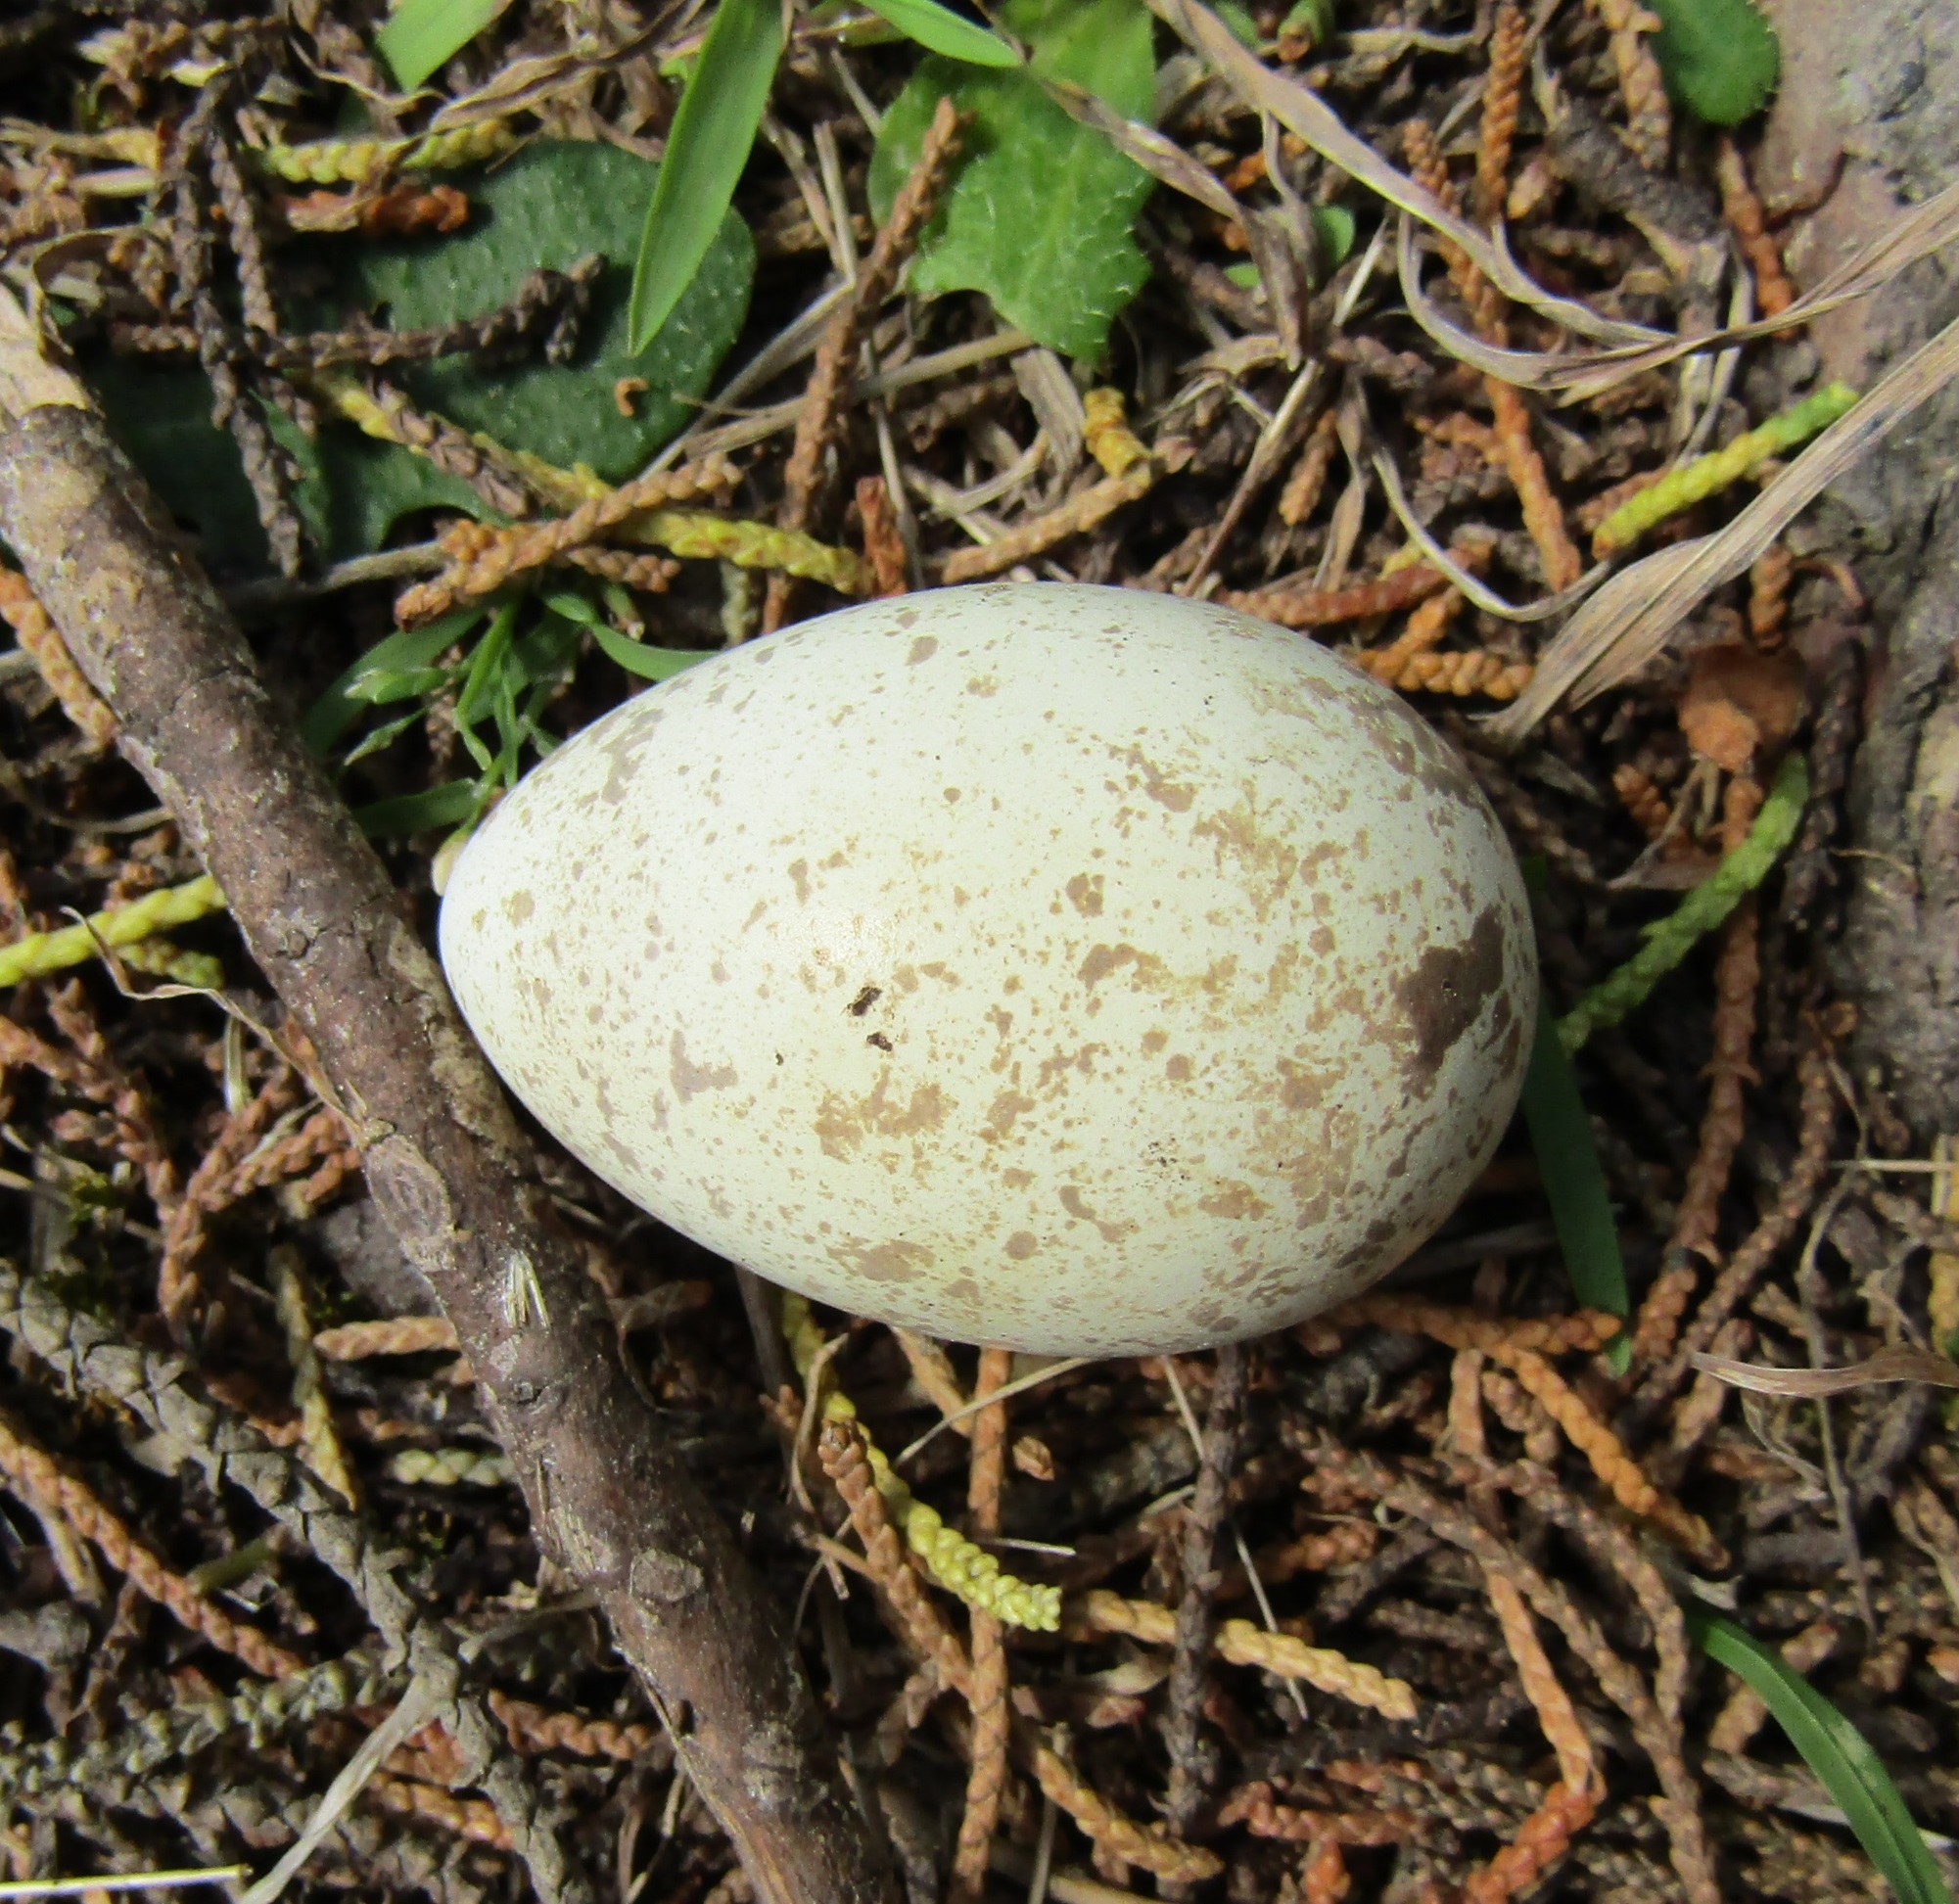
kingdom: Animalia
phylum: Chordata
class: Aves
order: Galliformes
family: Odontophoridae
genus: Callipepla
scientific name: Callipepla californica
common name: California quail
